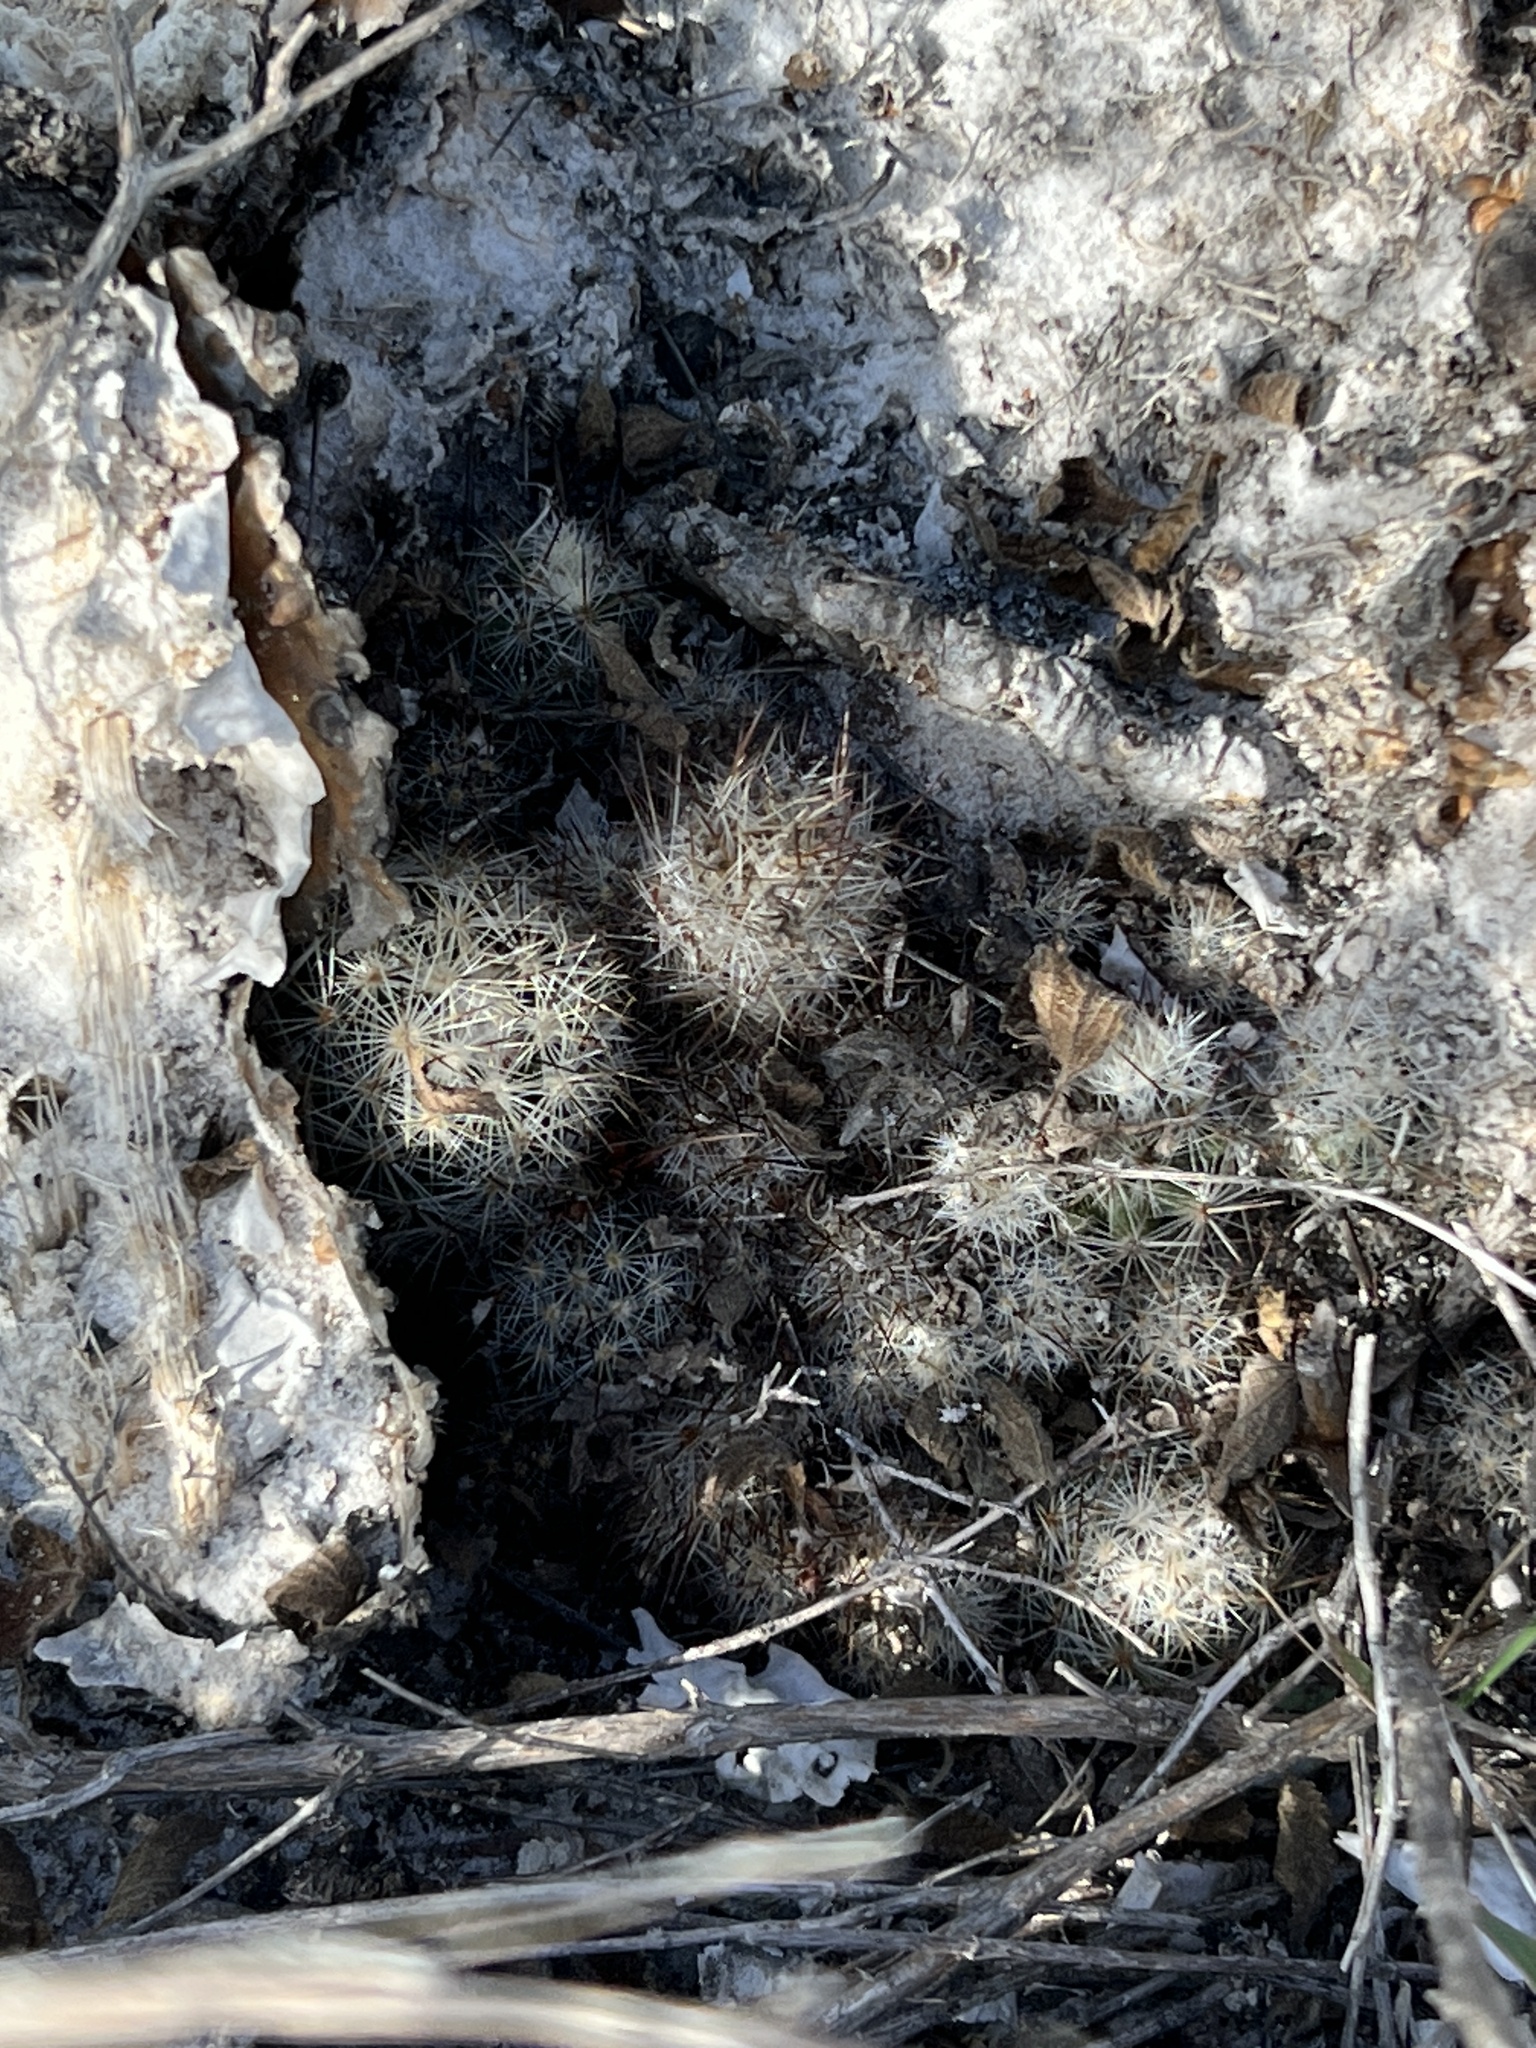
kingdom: Plantae
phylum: Tracheophyta
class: Magnoliopsida
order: Caryophyllales
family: Cactaceae
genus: Mammillaria
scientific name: Mammillaria prolifera
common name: Texas nipple cactus
